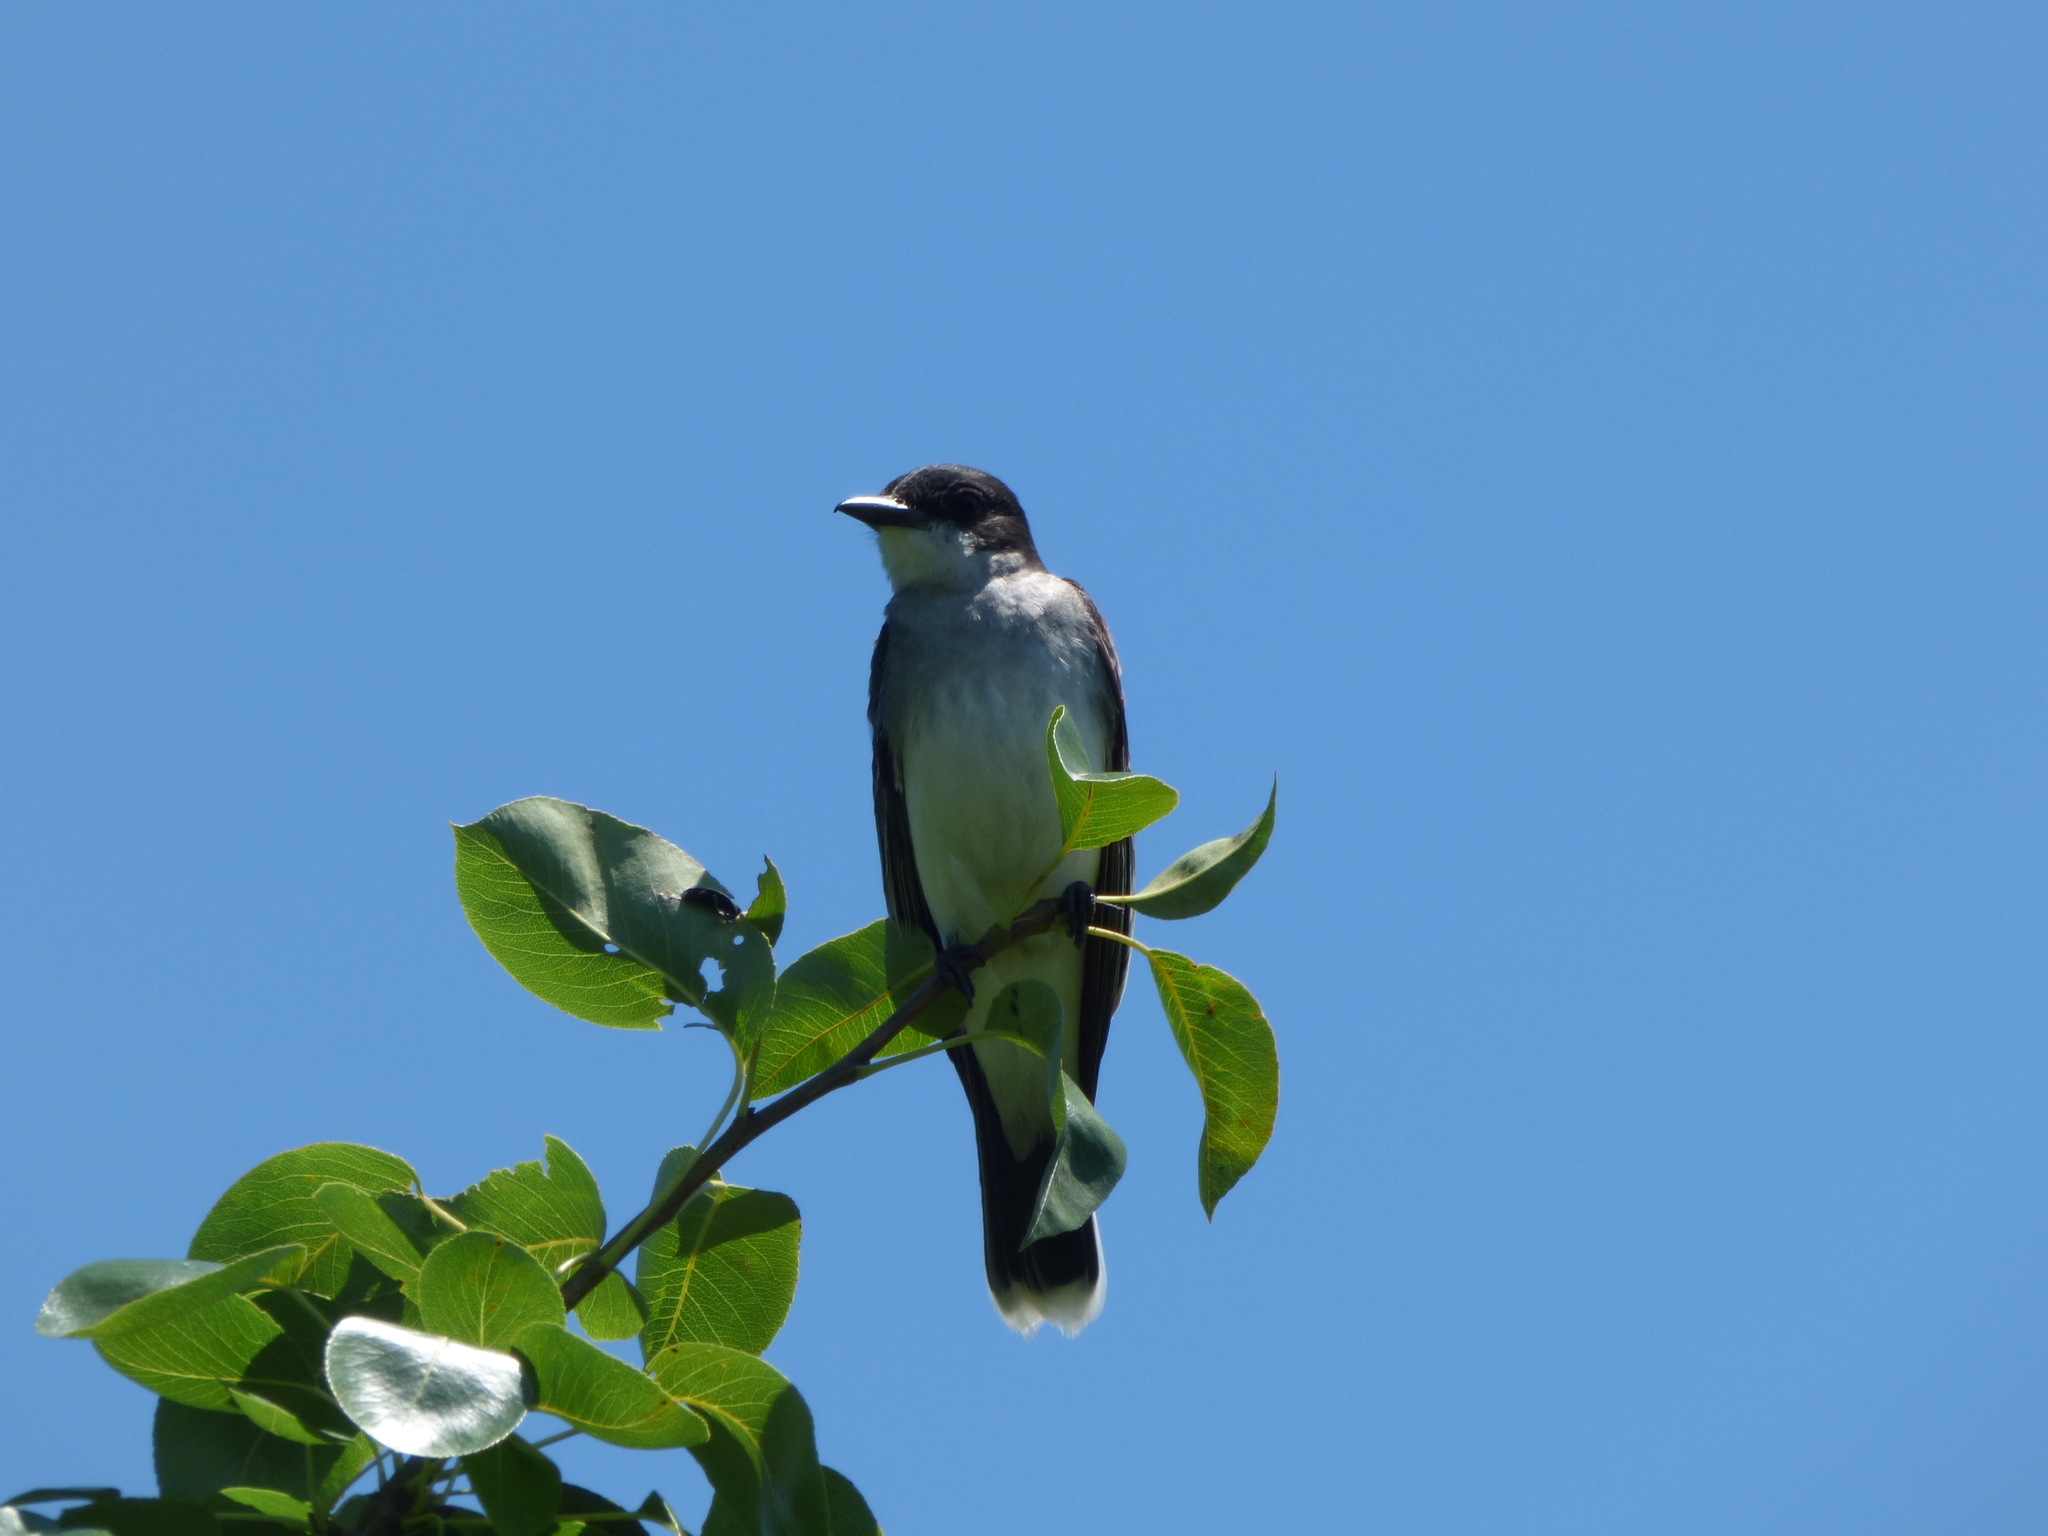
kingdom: Animalia
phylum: Chordata
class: Aves
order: Passeriformes
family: Tyrannidae
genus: Tyrannus
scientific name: Tyrannus tyrannus
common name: Eastern kingbird
